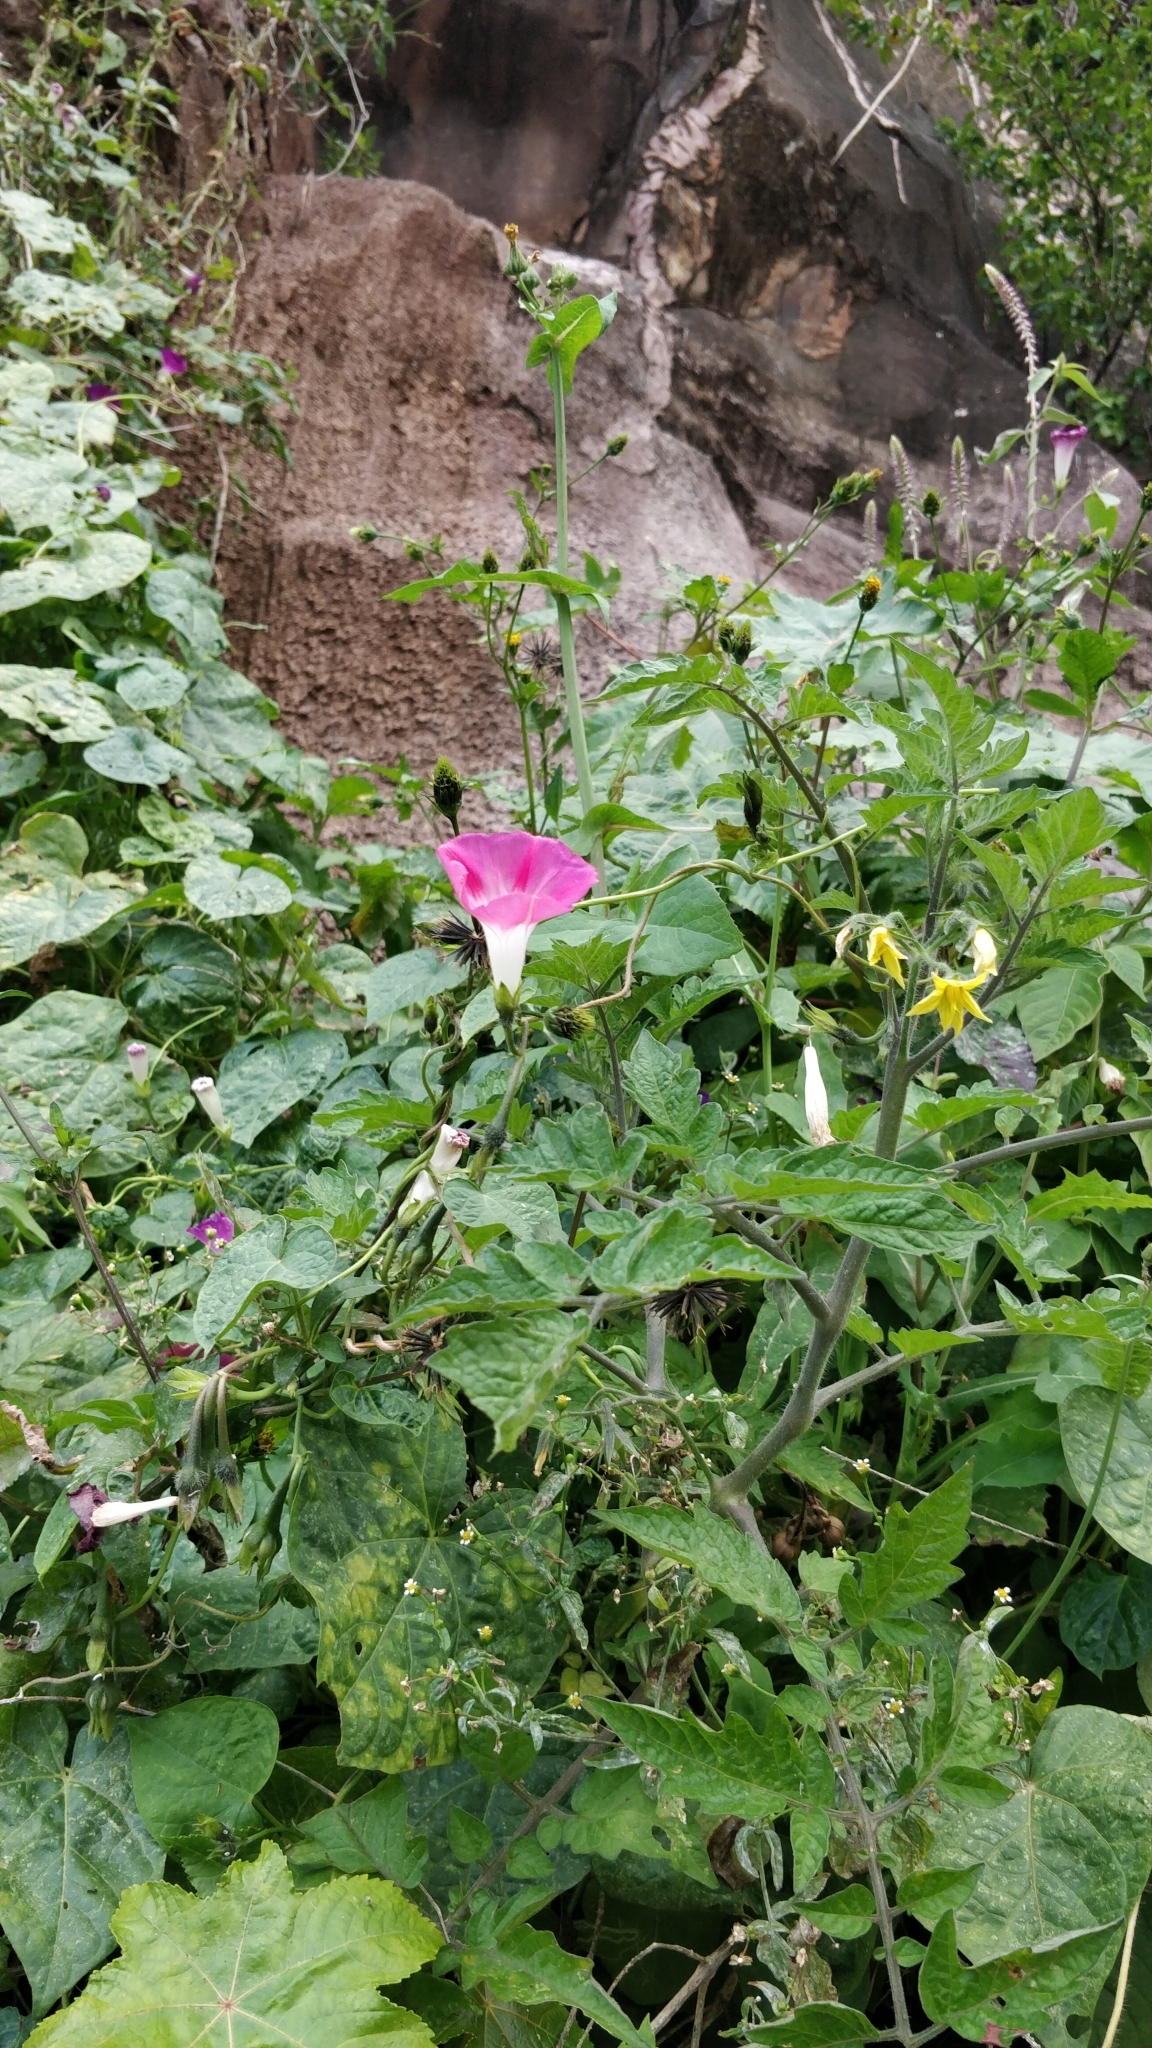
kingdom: Plantae
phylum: Tracheophyta
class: Magnoliopsida
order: Solanales
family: Convolvulaceae
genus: Ipomoea
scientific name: Ipomoea purpurea
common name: Common morning-glory
